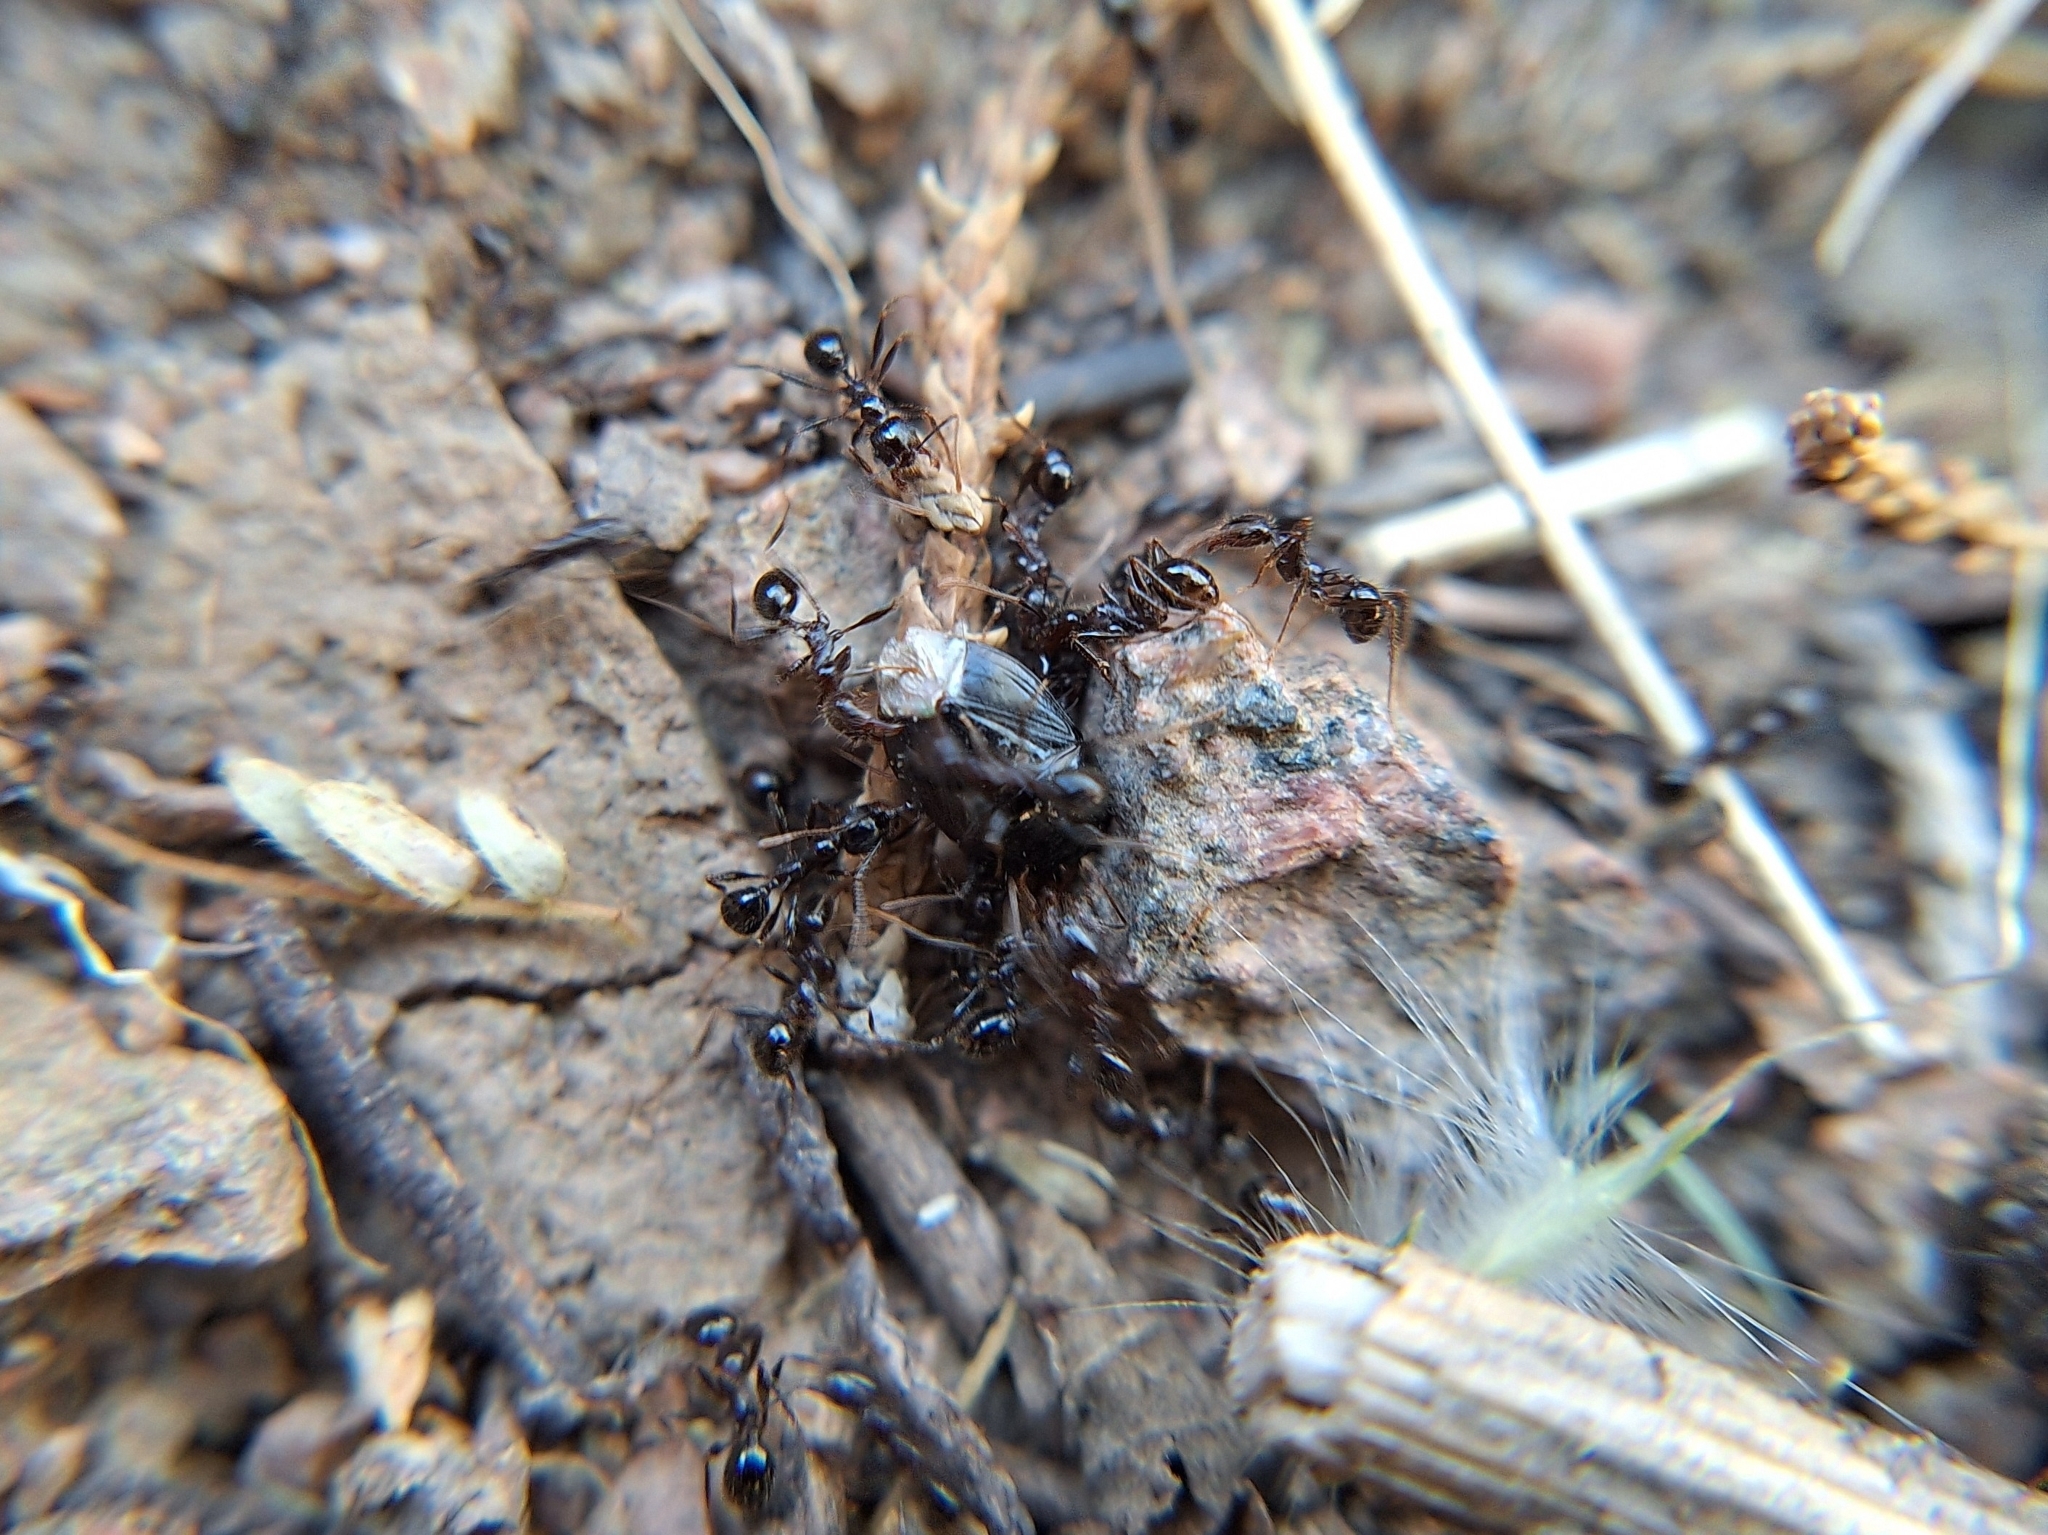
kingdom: Animalia
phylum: Arthropoda
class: Insecta
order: Hymenoptera
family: Formicidae
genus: Pheidole
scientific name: Pheidole rhea
